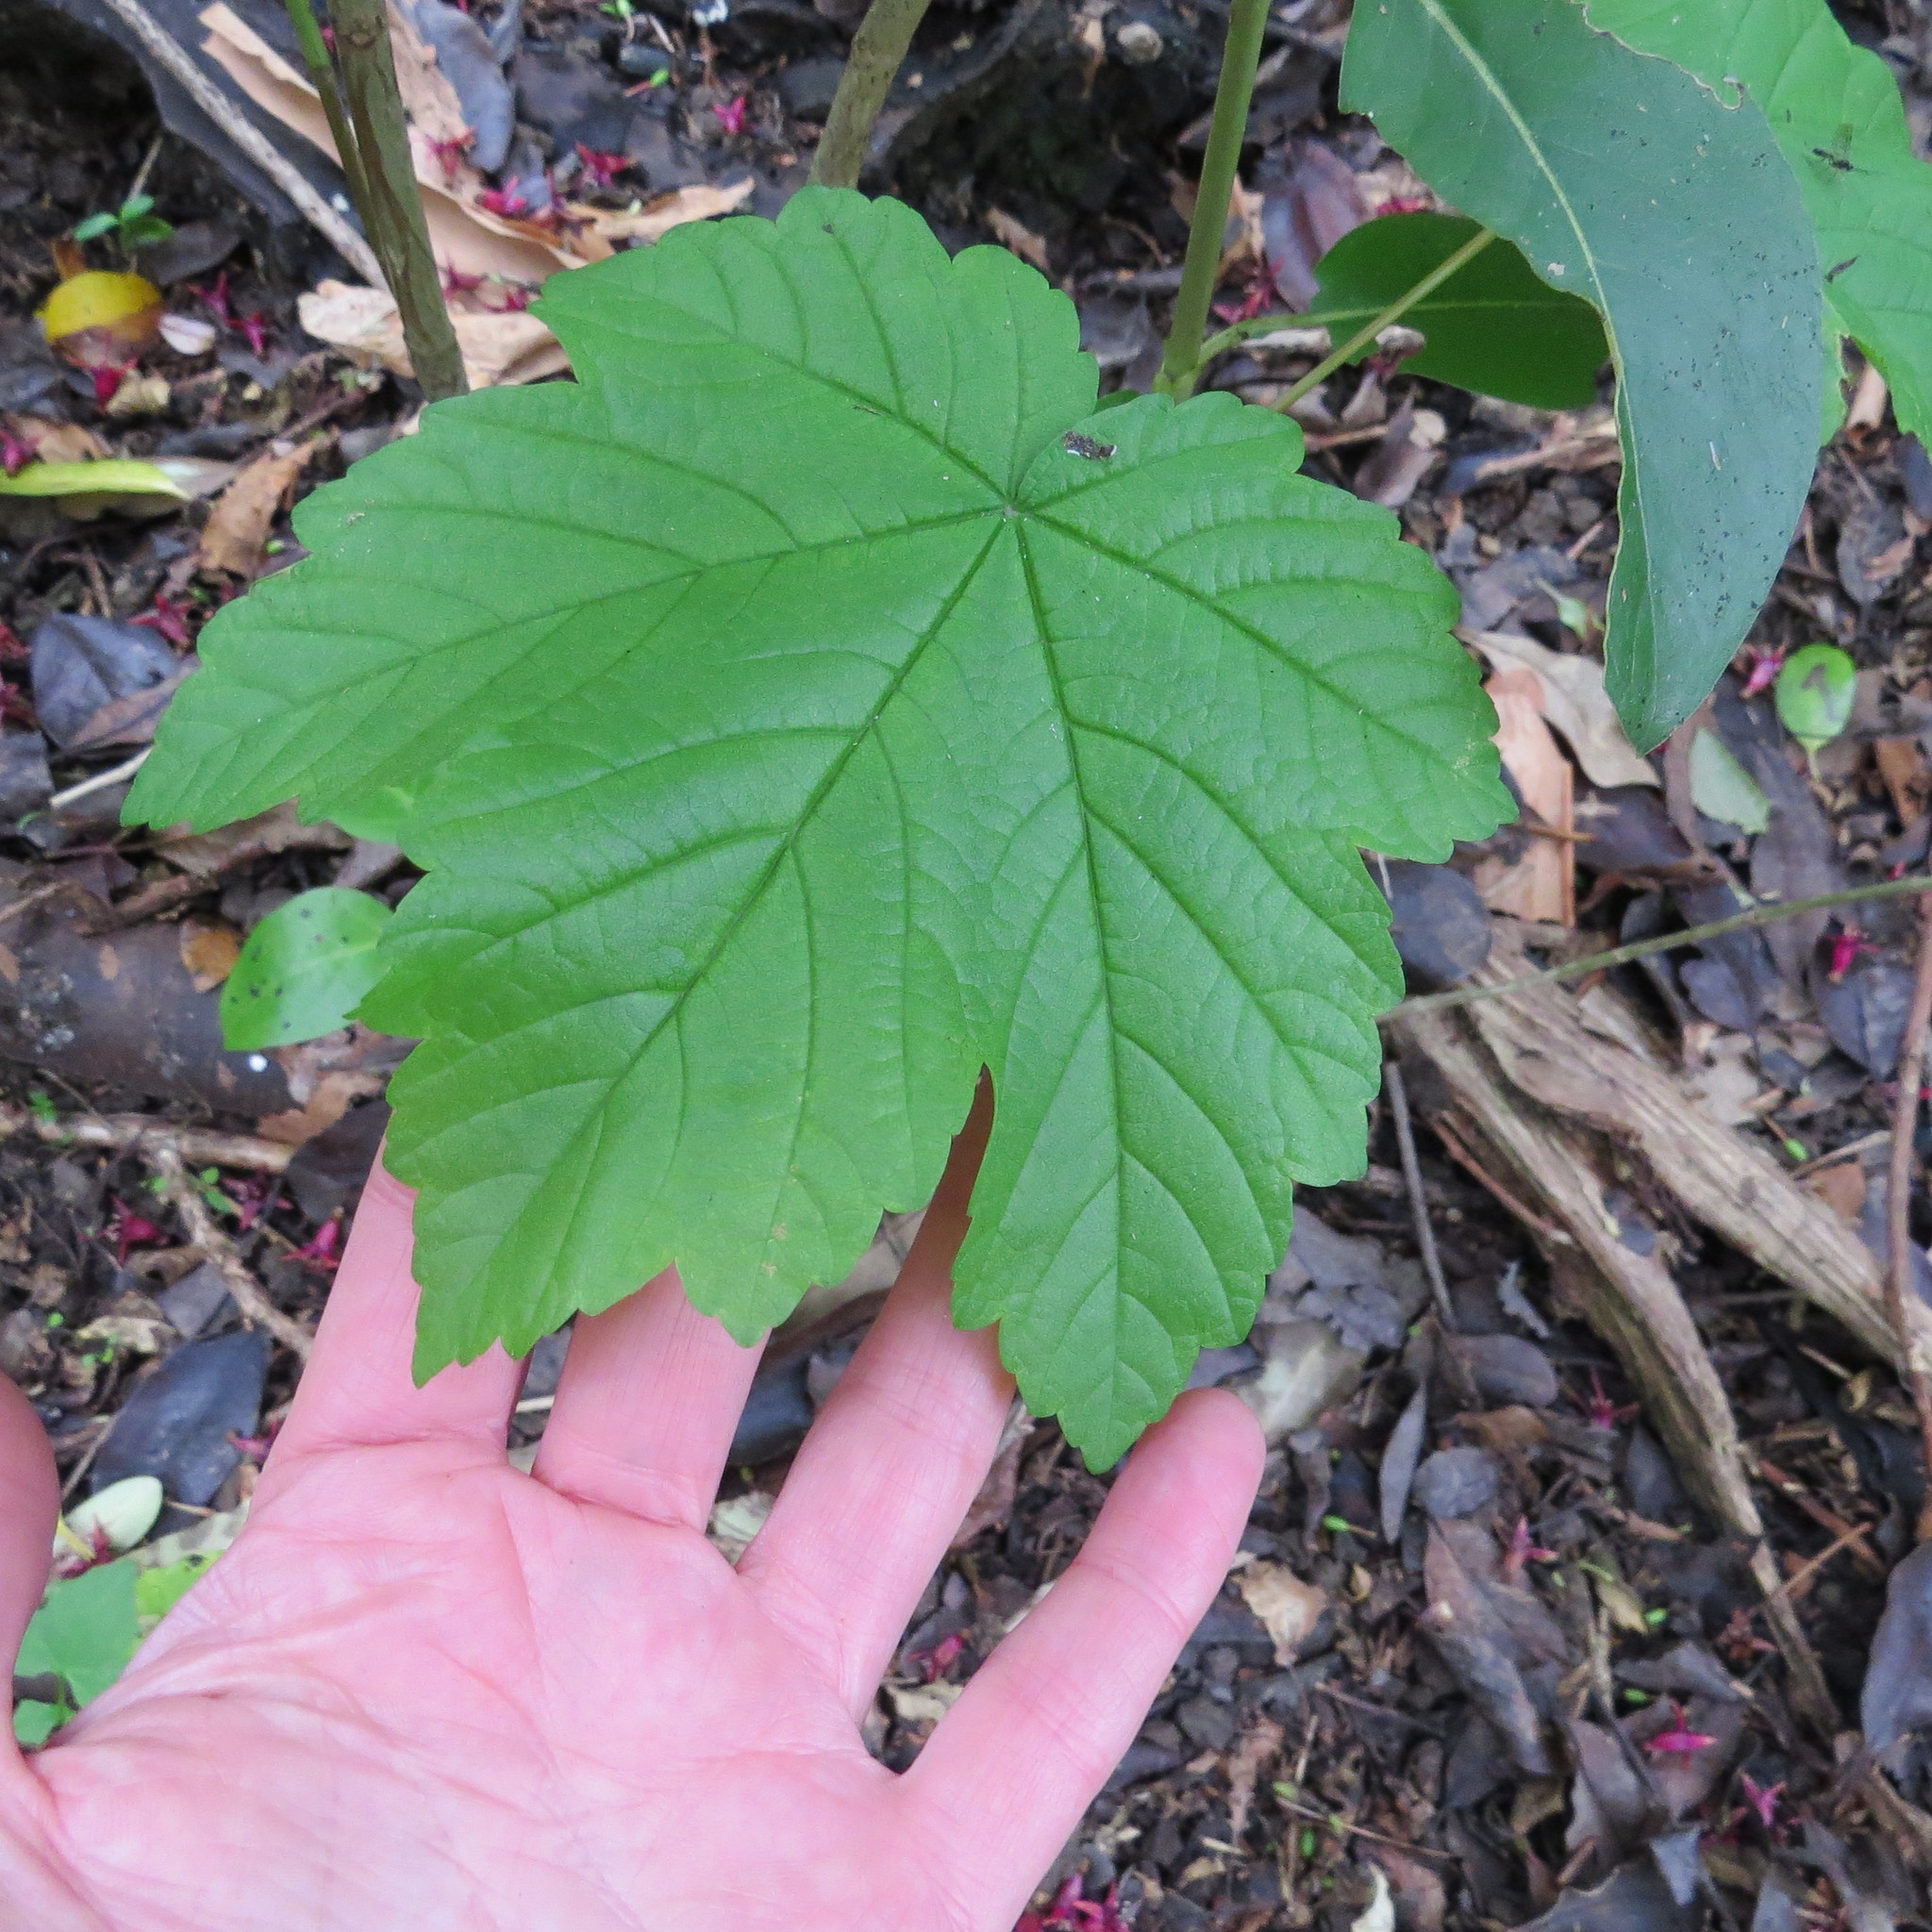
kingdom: Plantae
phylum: Tracheophyta
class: Magnoliopsida
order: Sapindales
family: Sapindaceae
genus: Acer
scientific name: Acer pseudoplatanus
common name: Sycamore
